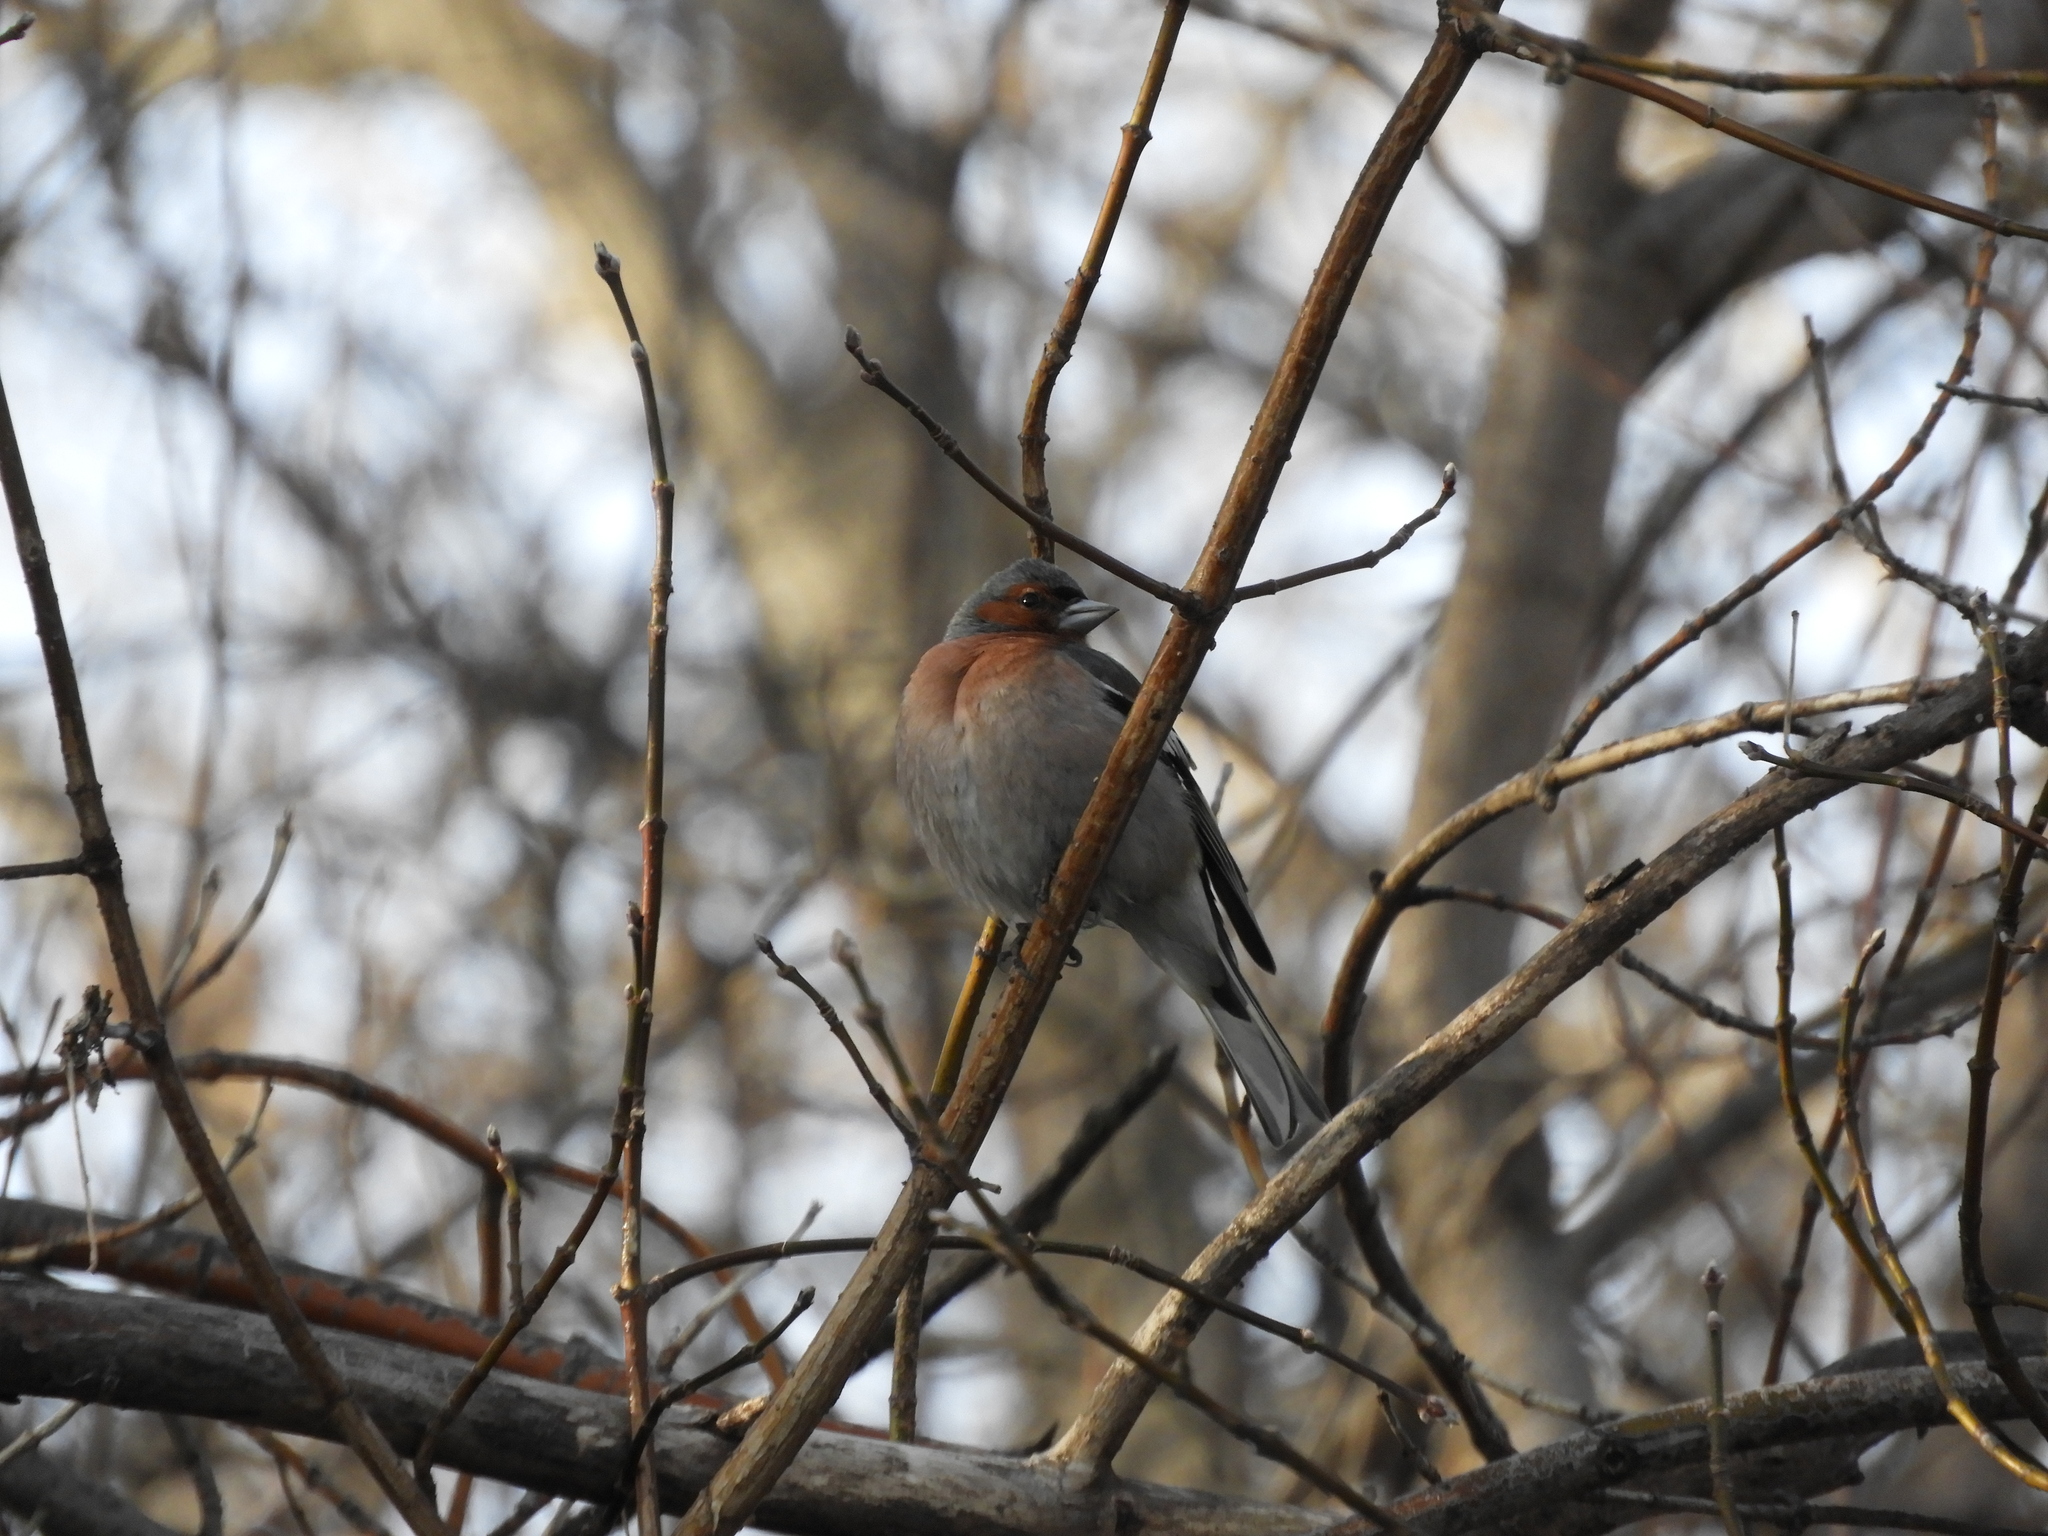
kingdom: Animalia
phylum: Chordata
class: Aves
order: Passeriformes
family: Fringillidae
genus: Fringilla
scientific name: Fringilla coelebs
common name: Common chaffinch
